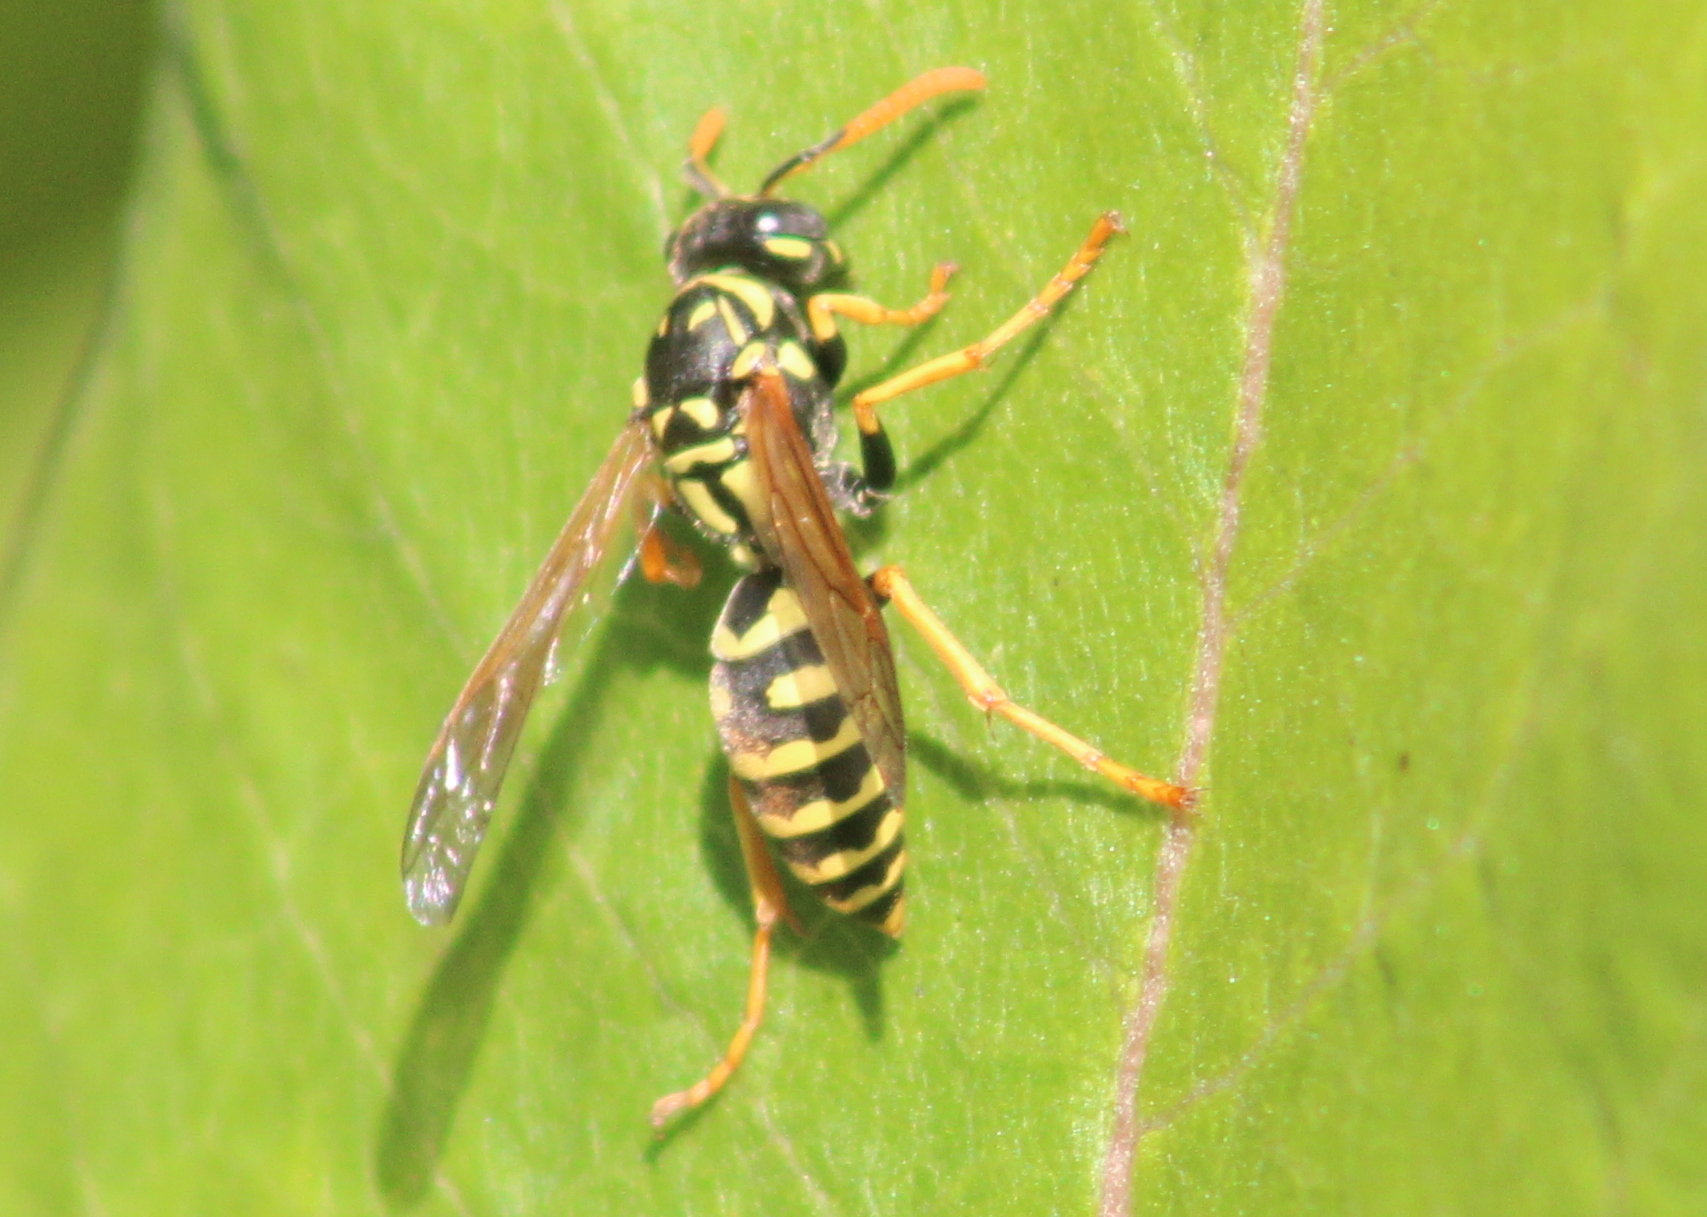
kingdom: Animalia
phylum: Arthropoda
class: Insecta
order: Hymenoptera
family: Eumenidae
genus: Polistes
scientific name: Polistes dominula
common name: Paper wasp
